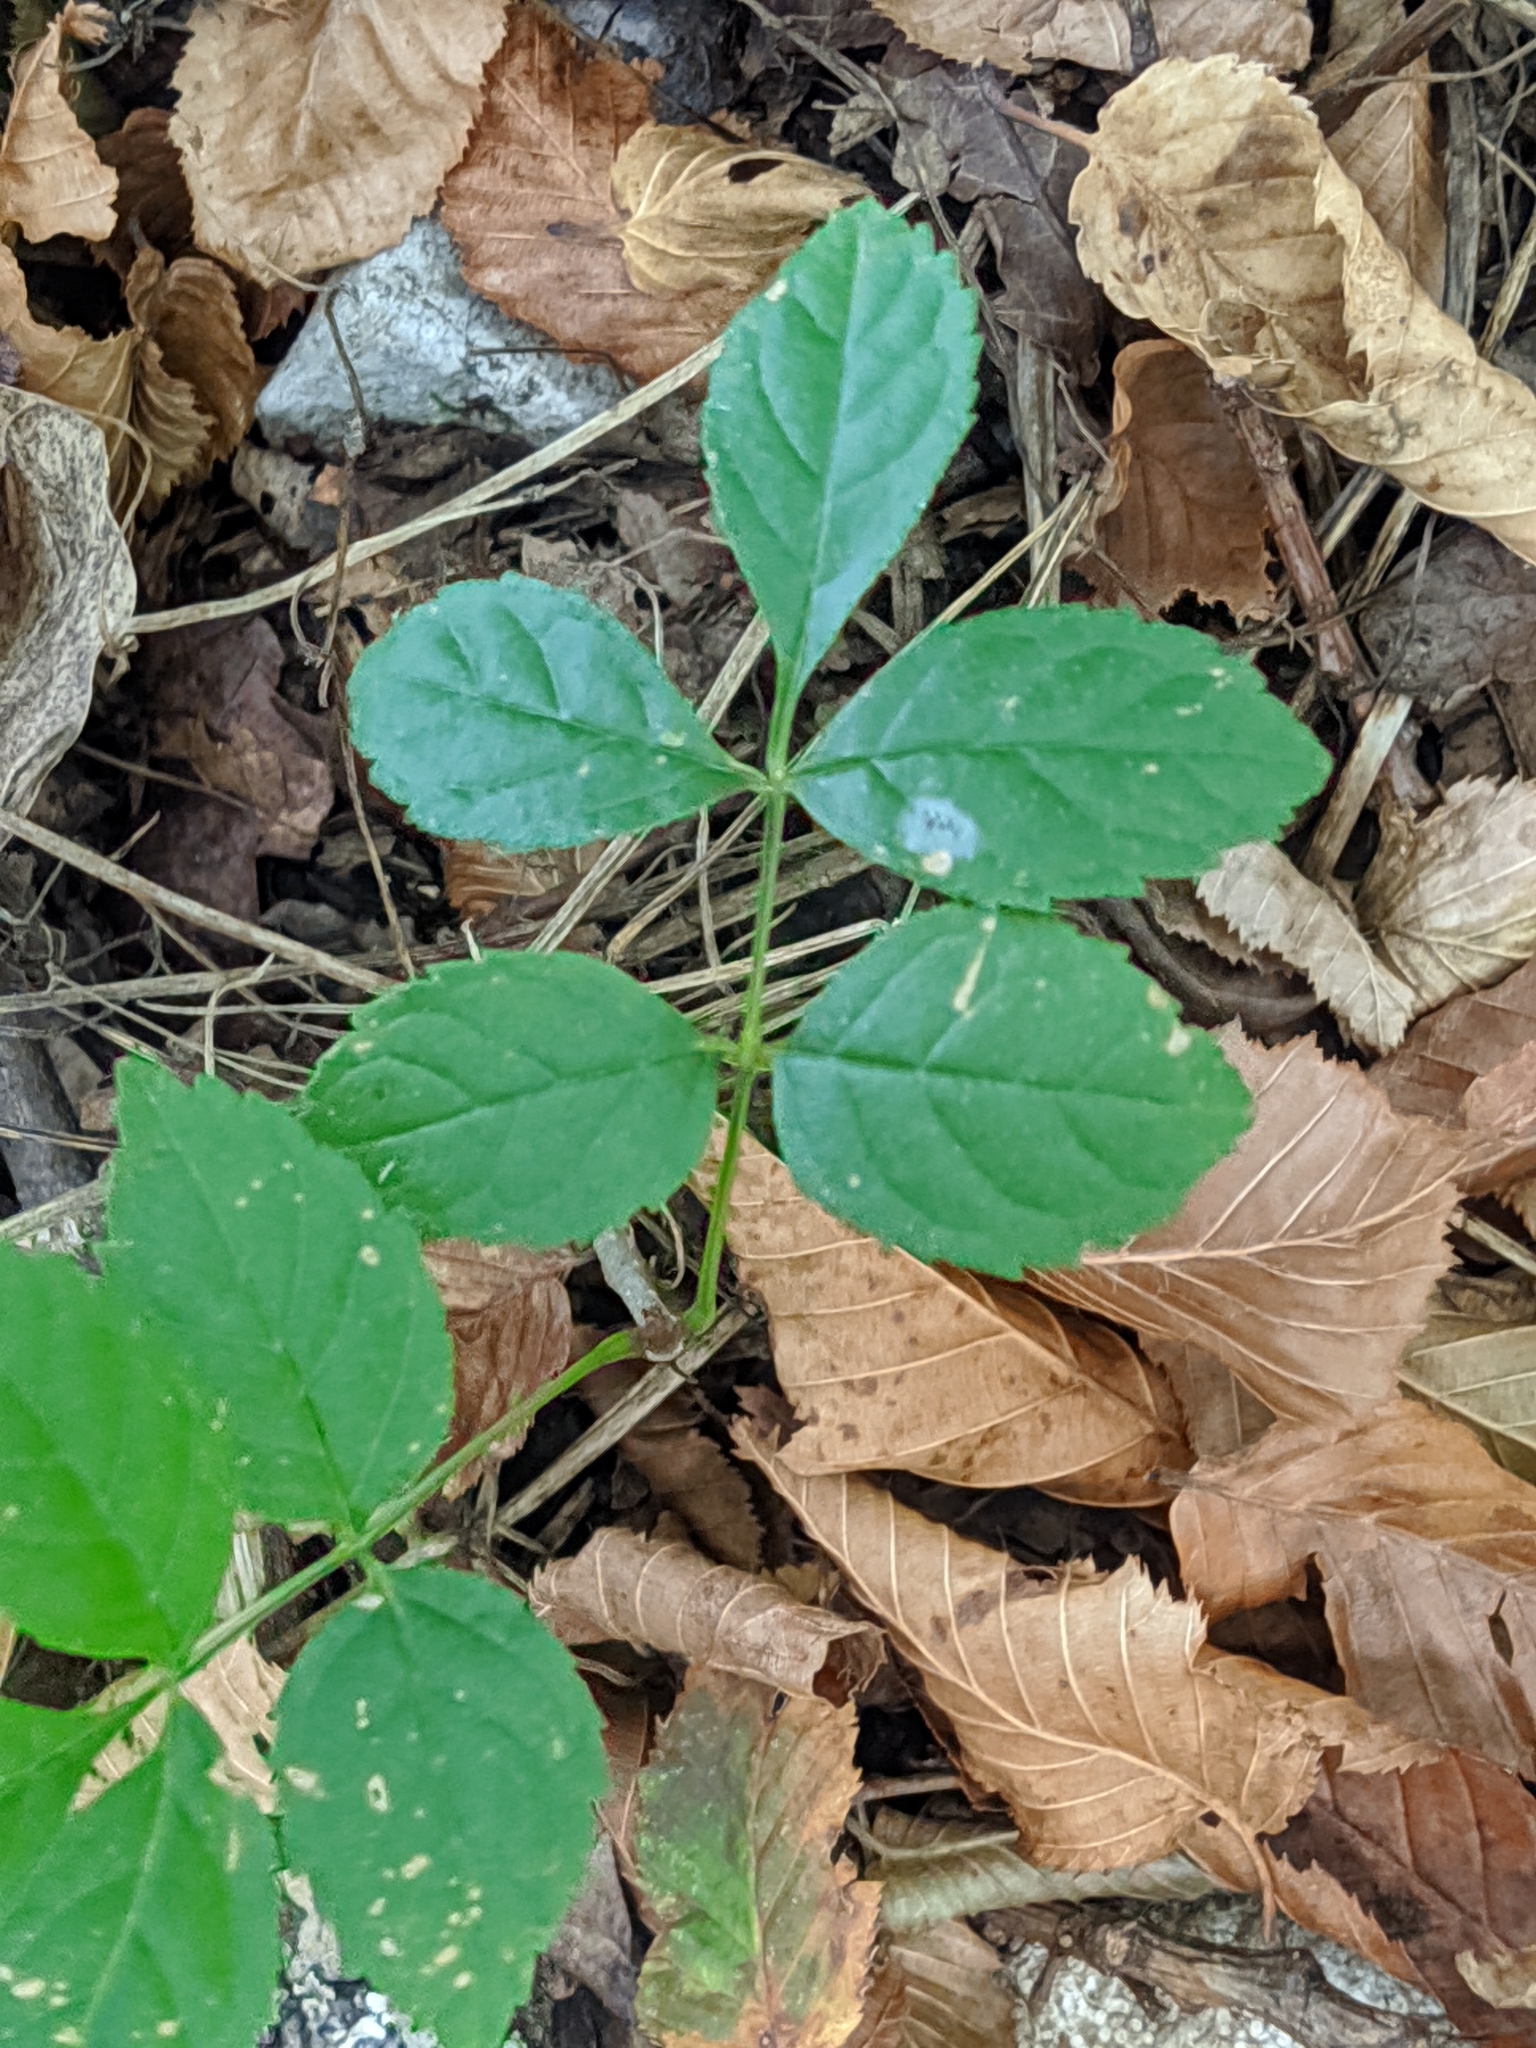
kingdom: Plantae
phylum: Tracheophyta
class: Magnoliopsida
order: Lamiales
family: Oleaceae
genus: Fraxinus
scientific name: Fraxinus excelsior
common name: European ash
